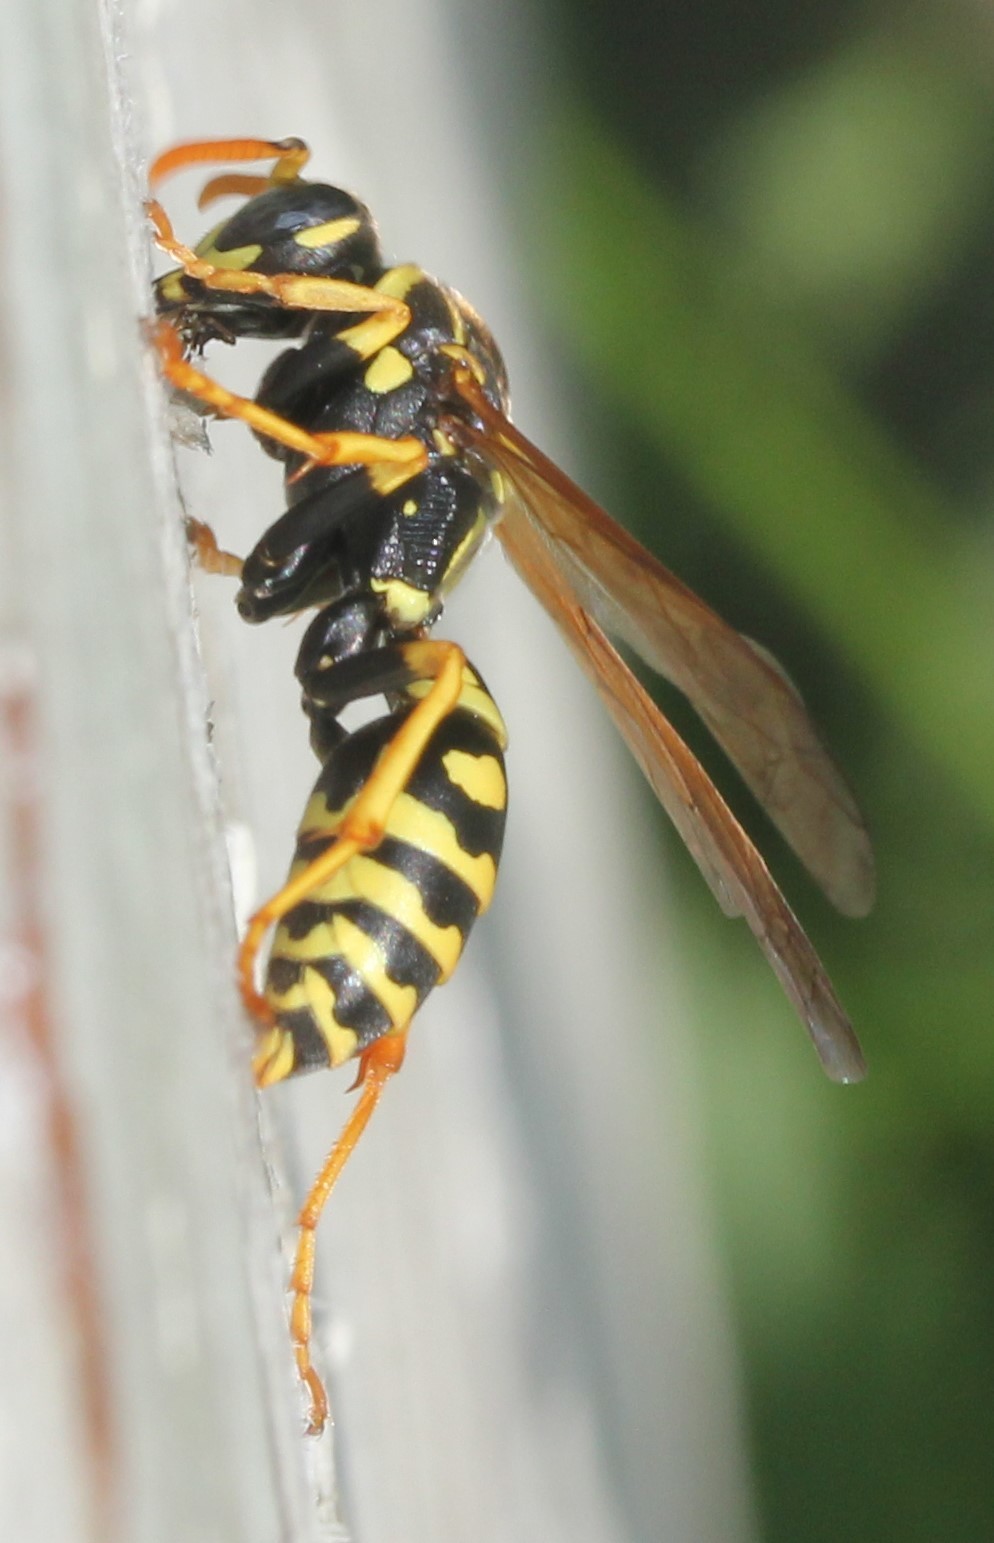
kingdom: Animalia
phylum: Arthropoda
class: Insecta
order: Hymenoptera
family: Eumenidae
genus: Polistes
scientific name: Polistes dominula
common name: Paper wasp
